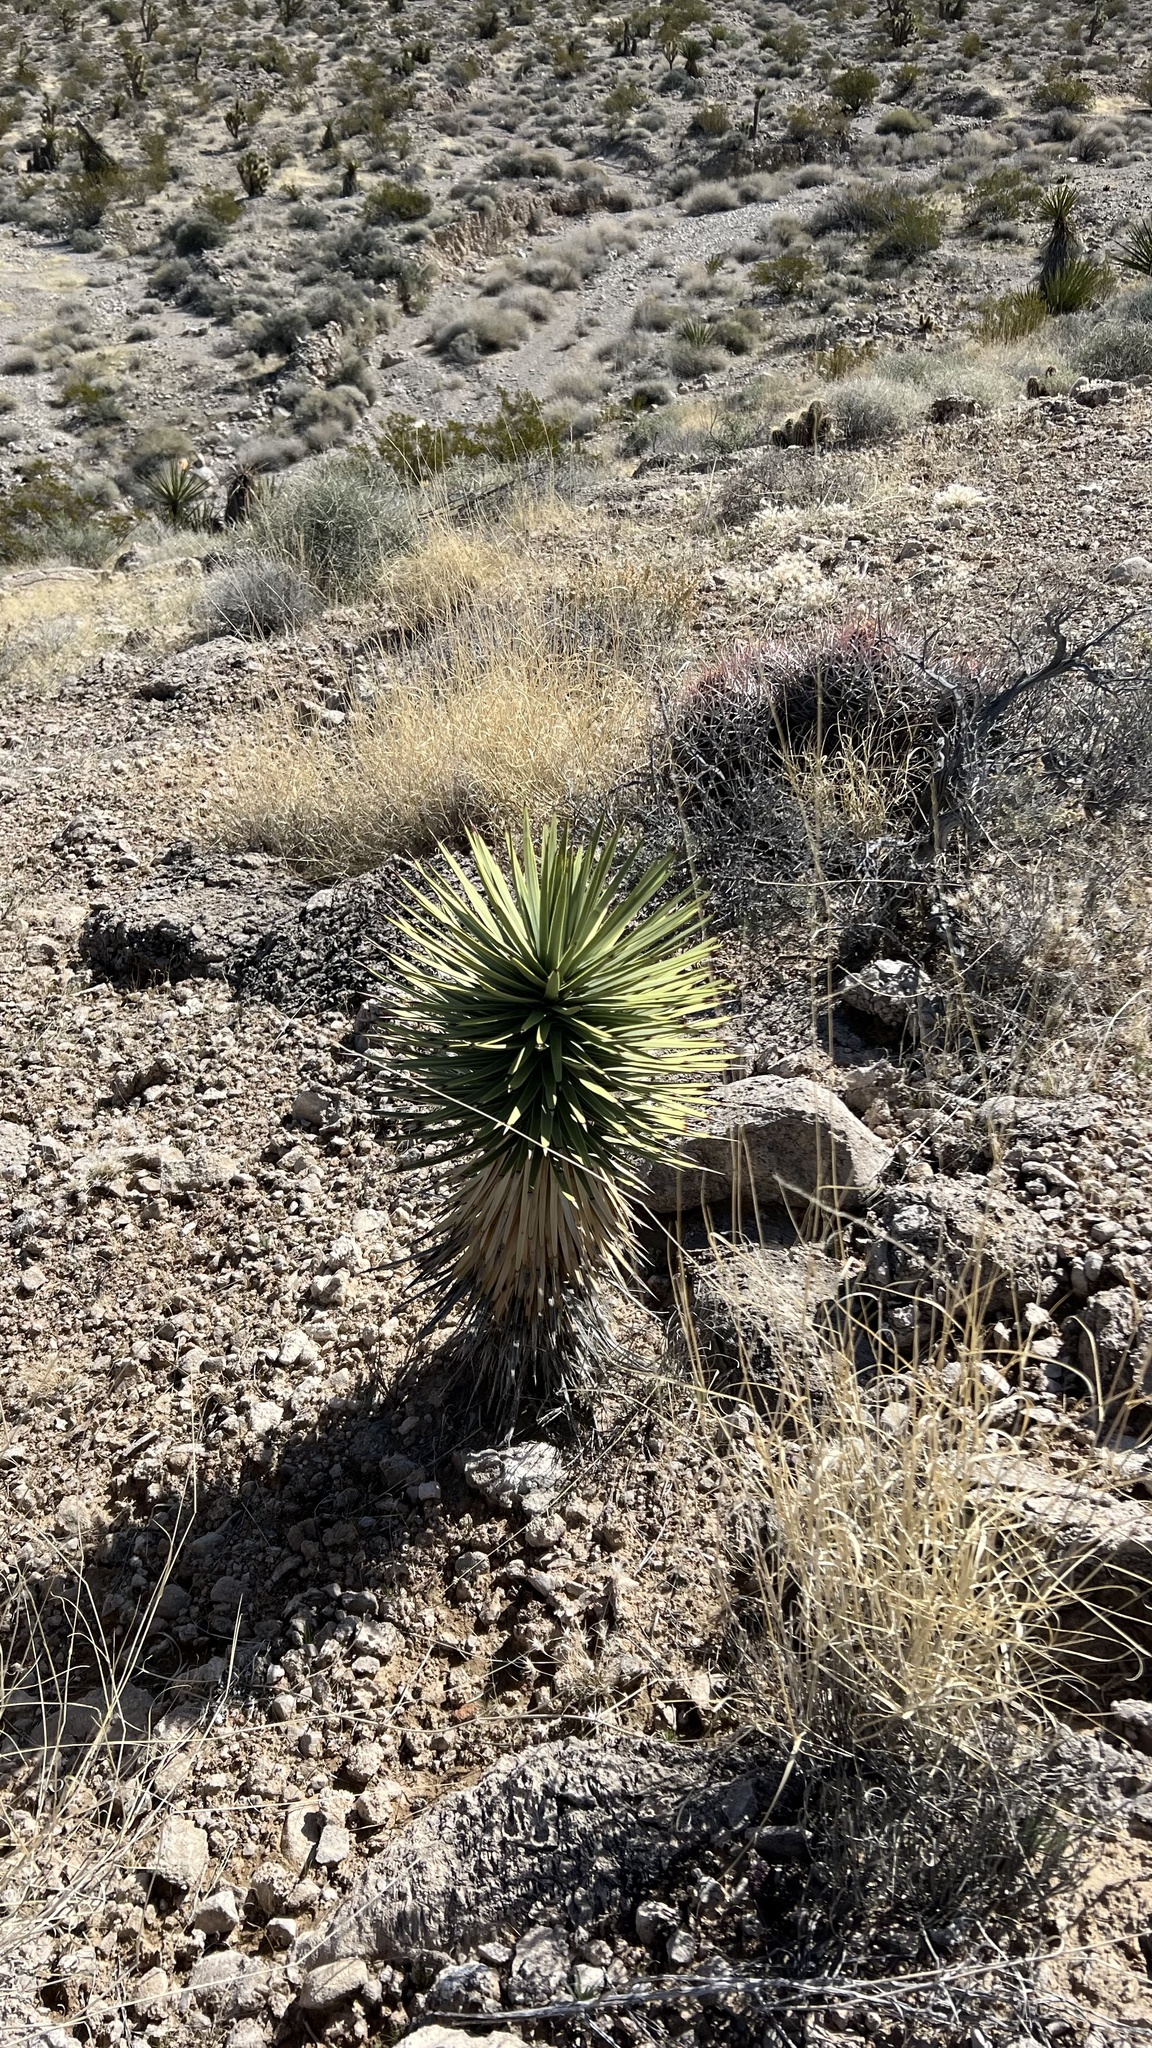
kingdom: Plantae
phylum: Tracheophyta
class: Liliopsida
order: Asparagales
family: Asparagaceae
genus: Yucca
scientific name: Yucca brevifolia
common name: Joshua tree
